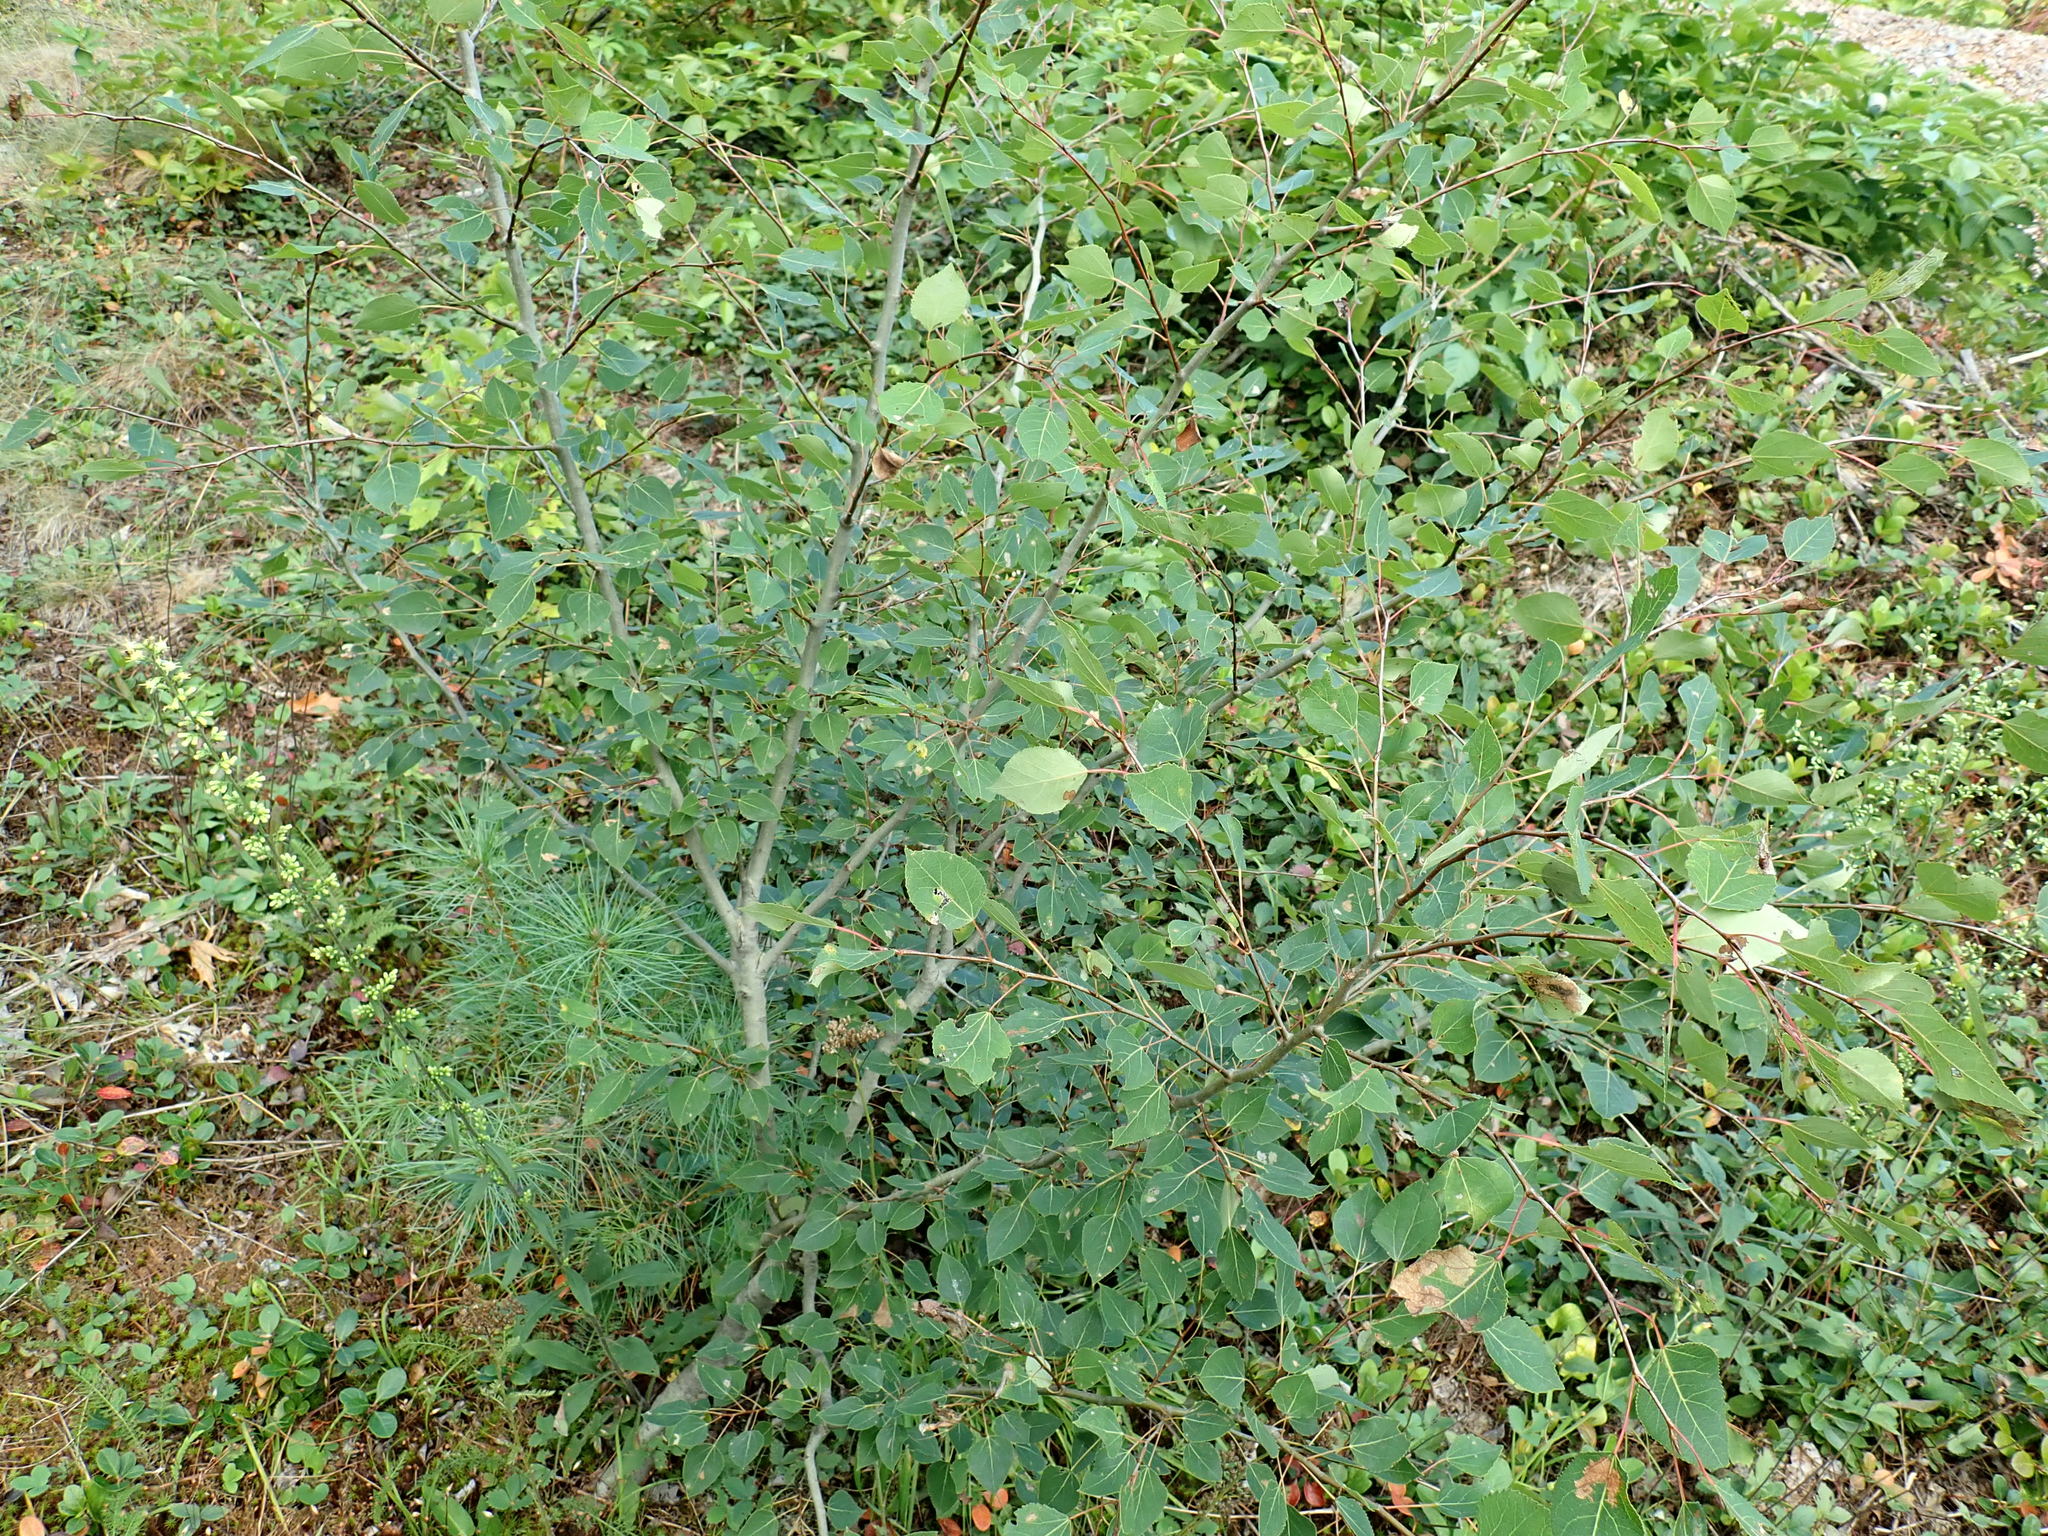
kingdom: Plantae
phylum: Tracheophyta
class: Magnoliopsida
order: Malpighiales
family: Salicaceae
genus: Populus
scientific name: Populus tremuloides
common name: Quaking aspen
